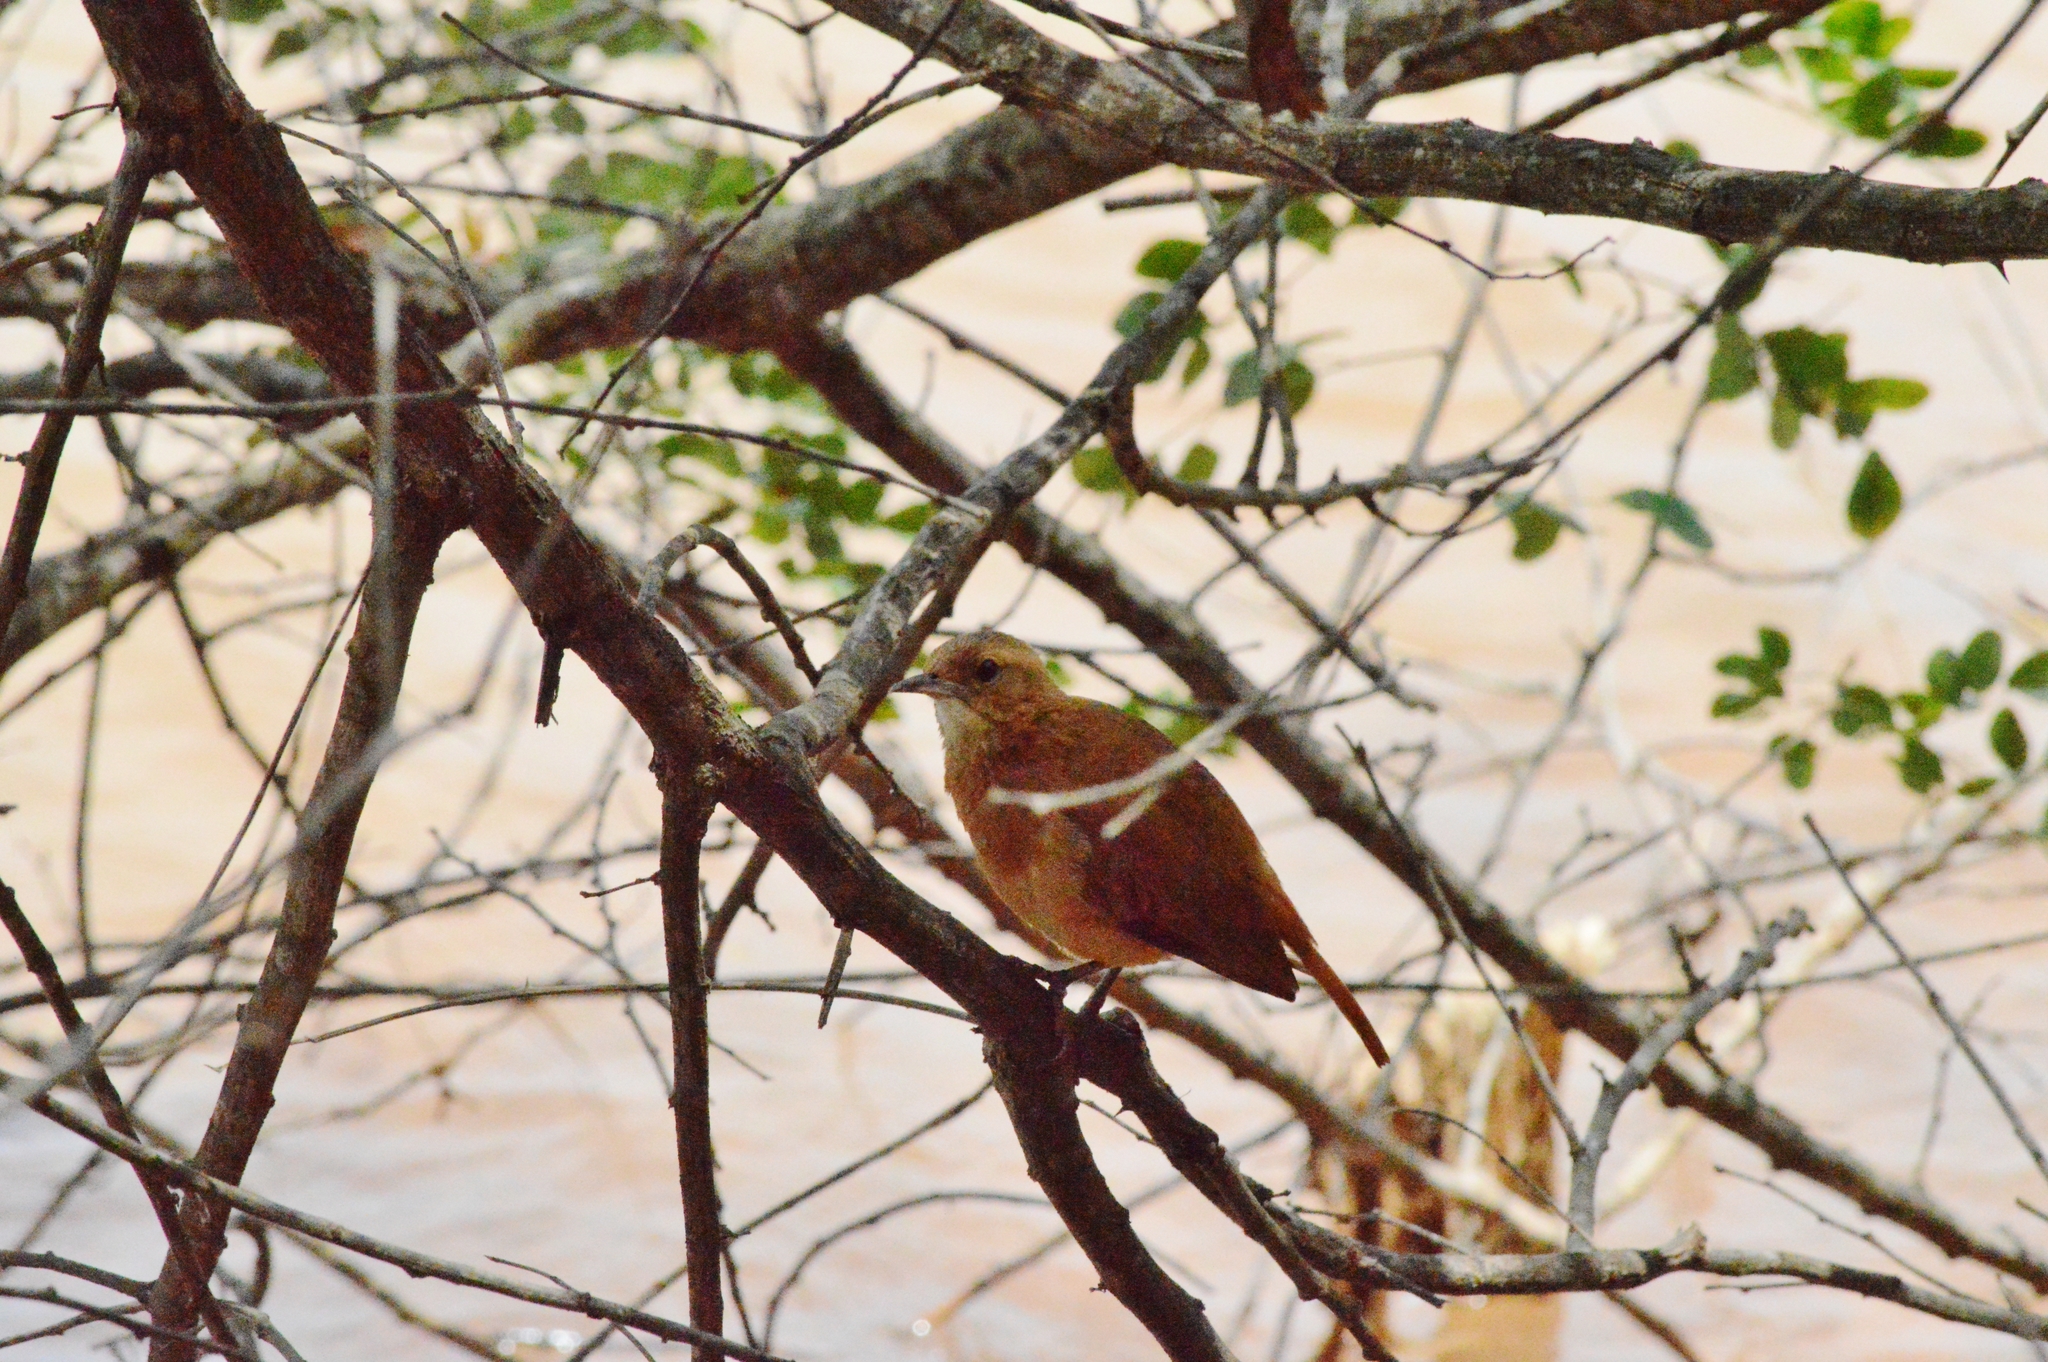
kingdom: Animalia
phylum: Chordata
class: Aves
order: Passeriformes
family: Furnariidae
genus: Furnarius
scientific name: Furnarius rufus
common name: Rufous hornero
